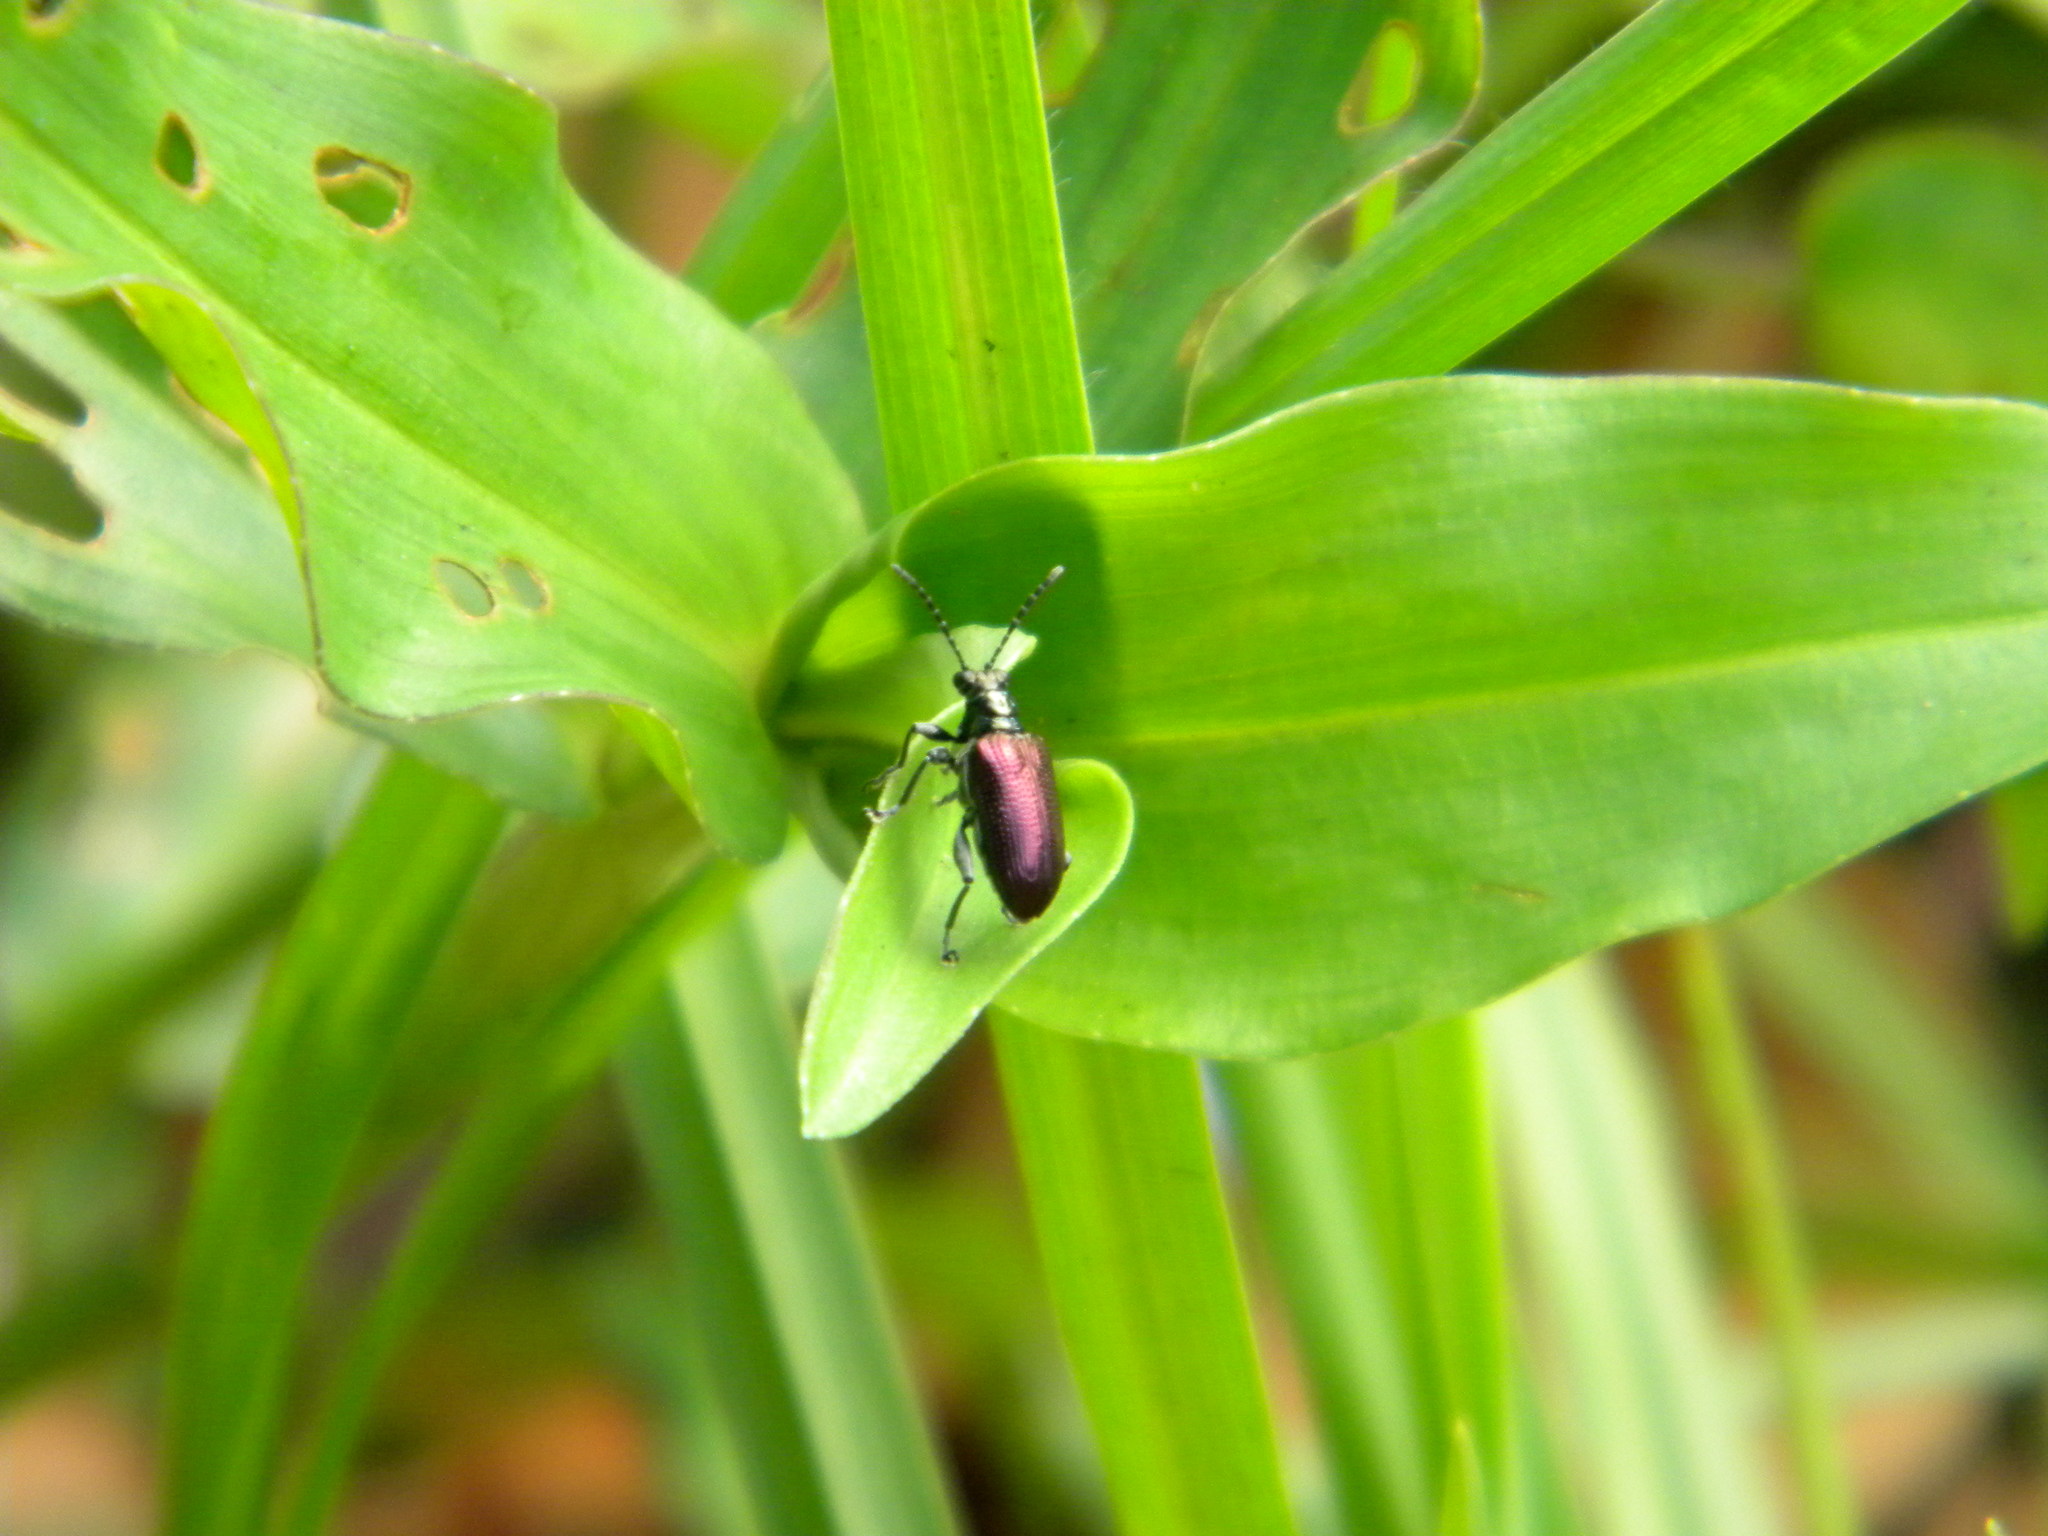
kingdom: Animalia
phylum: Arthropoda
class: Insecta
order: Coleoptera
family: Chrysomelidae
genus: Lema
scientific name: Lema
